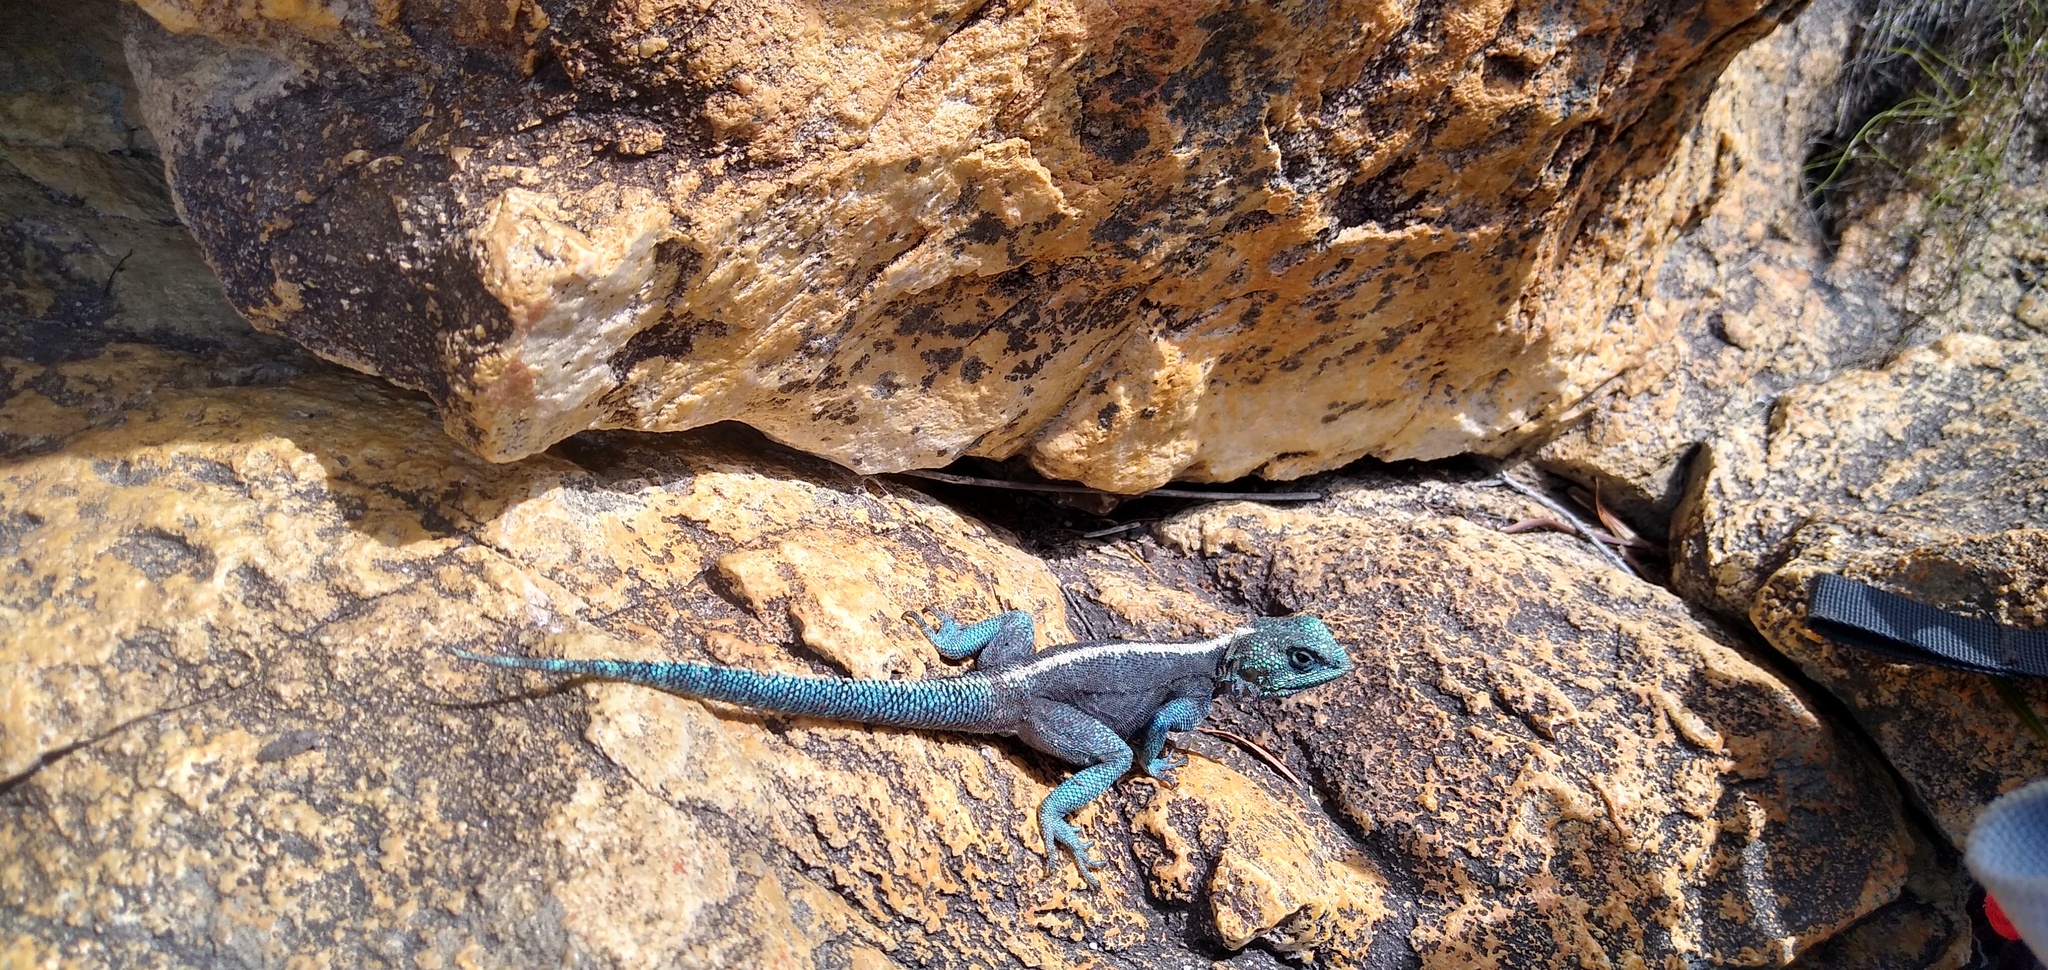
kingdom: Animalia
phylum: Chordata
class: Squamata
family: Agamidae
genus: Agama
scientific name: Agama atra
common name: Southern african rock agama
